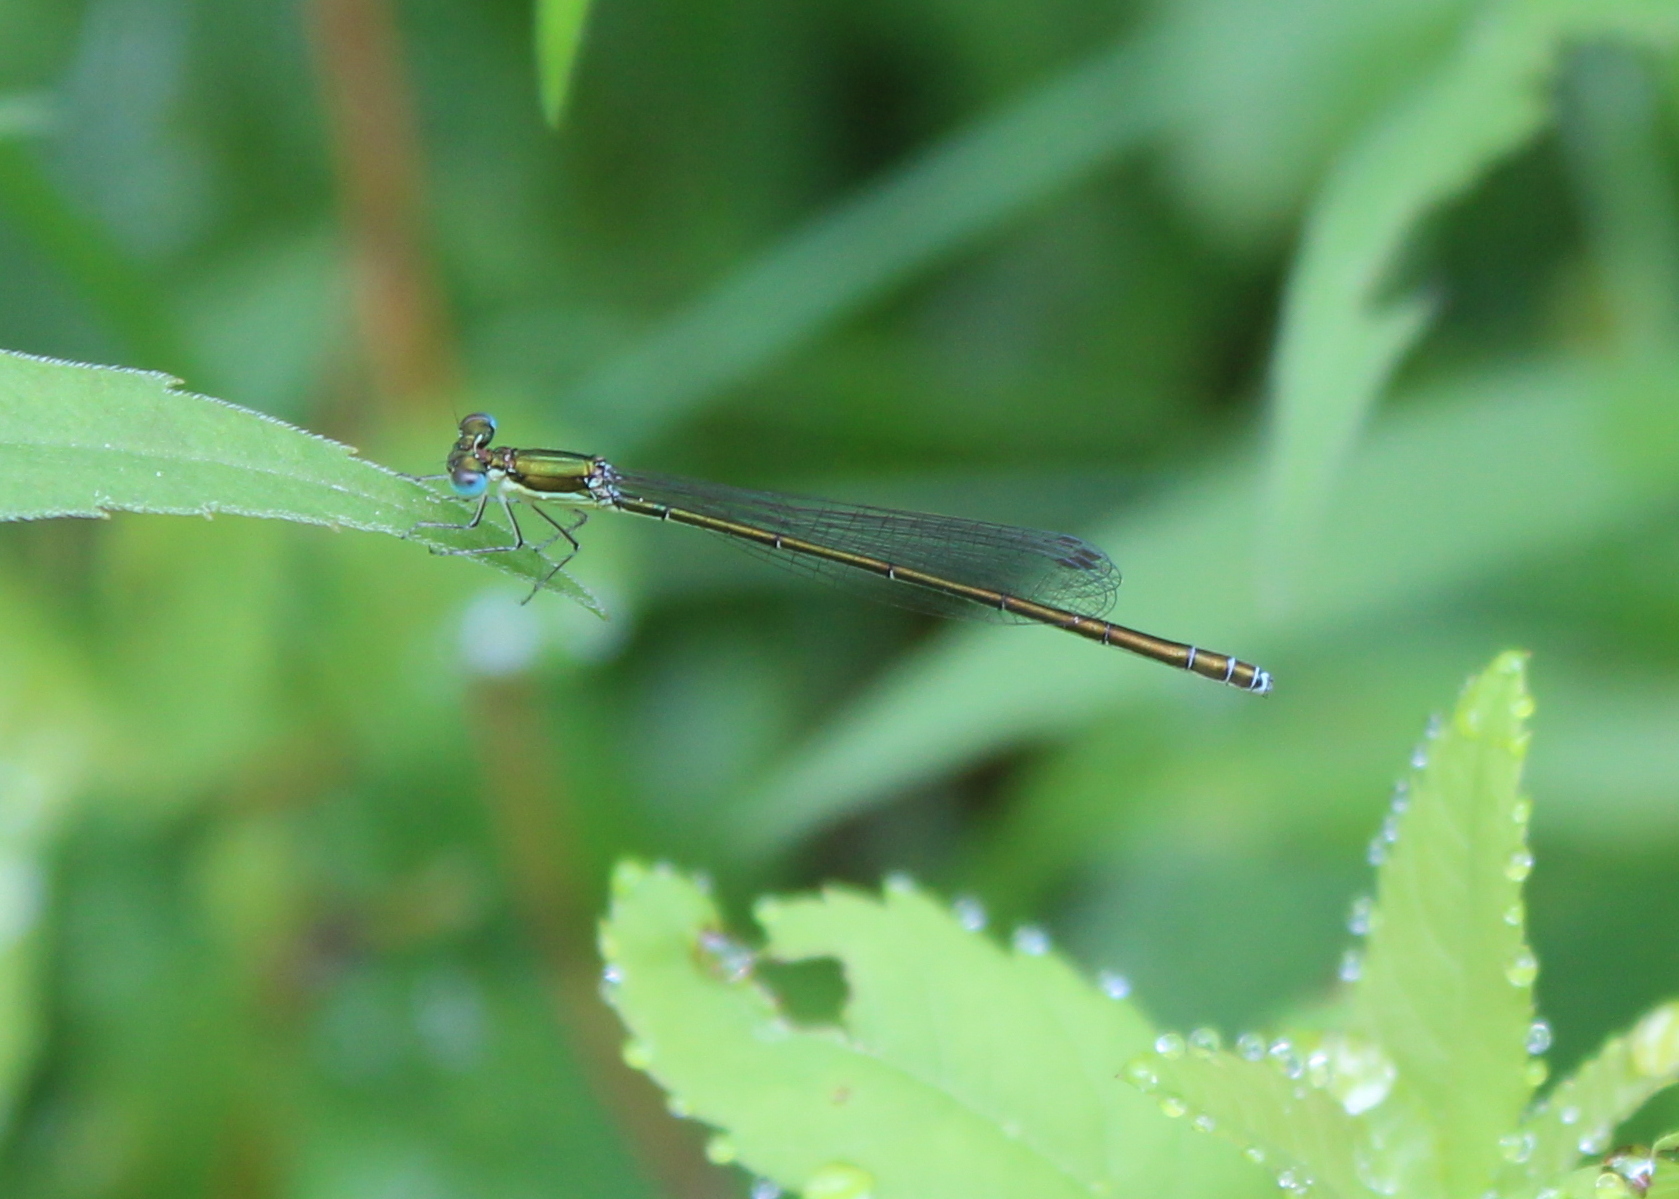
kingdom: Animalia
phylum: Arthropoda
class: Insecta
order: Odonata
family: Coenagrionidae
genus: Nehalennia
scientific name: Nehalennia irene
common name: Sedge sprite
